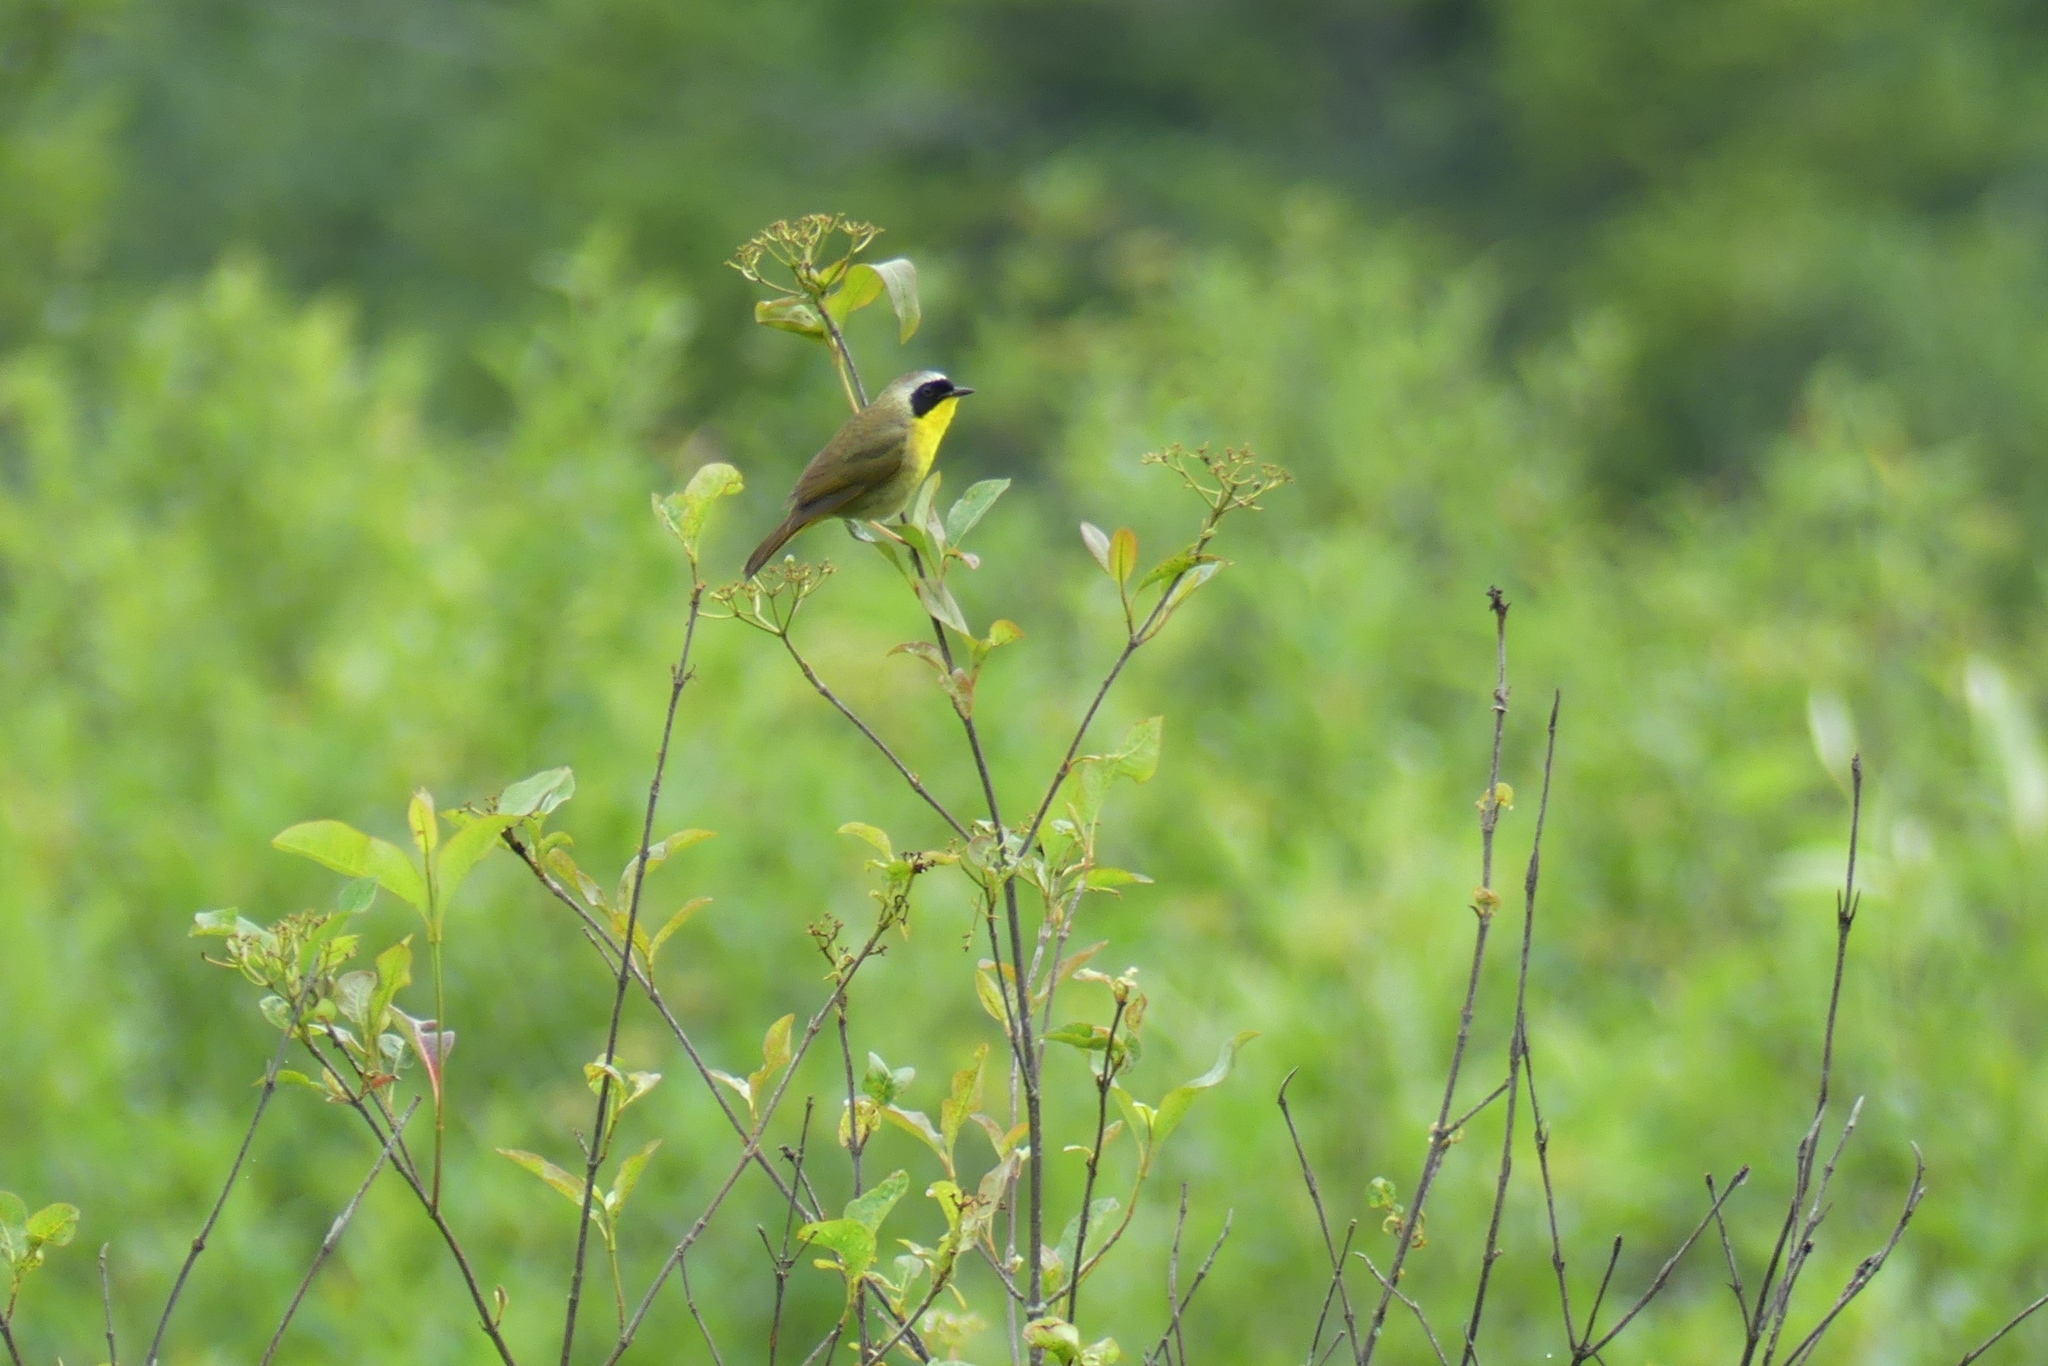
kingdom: Animalia
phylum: Chordata
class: Aves
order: Passeriformes
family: Parulidae
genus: Geothlypis
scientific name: Geothlypis trichas
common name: Common yellowthroat
